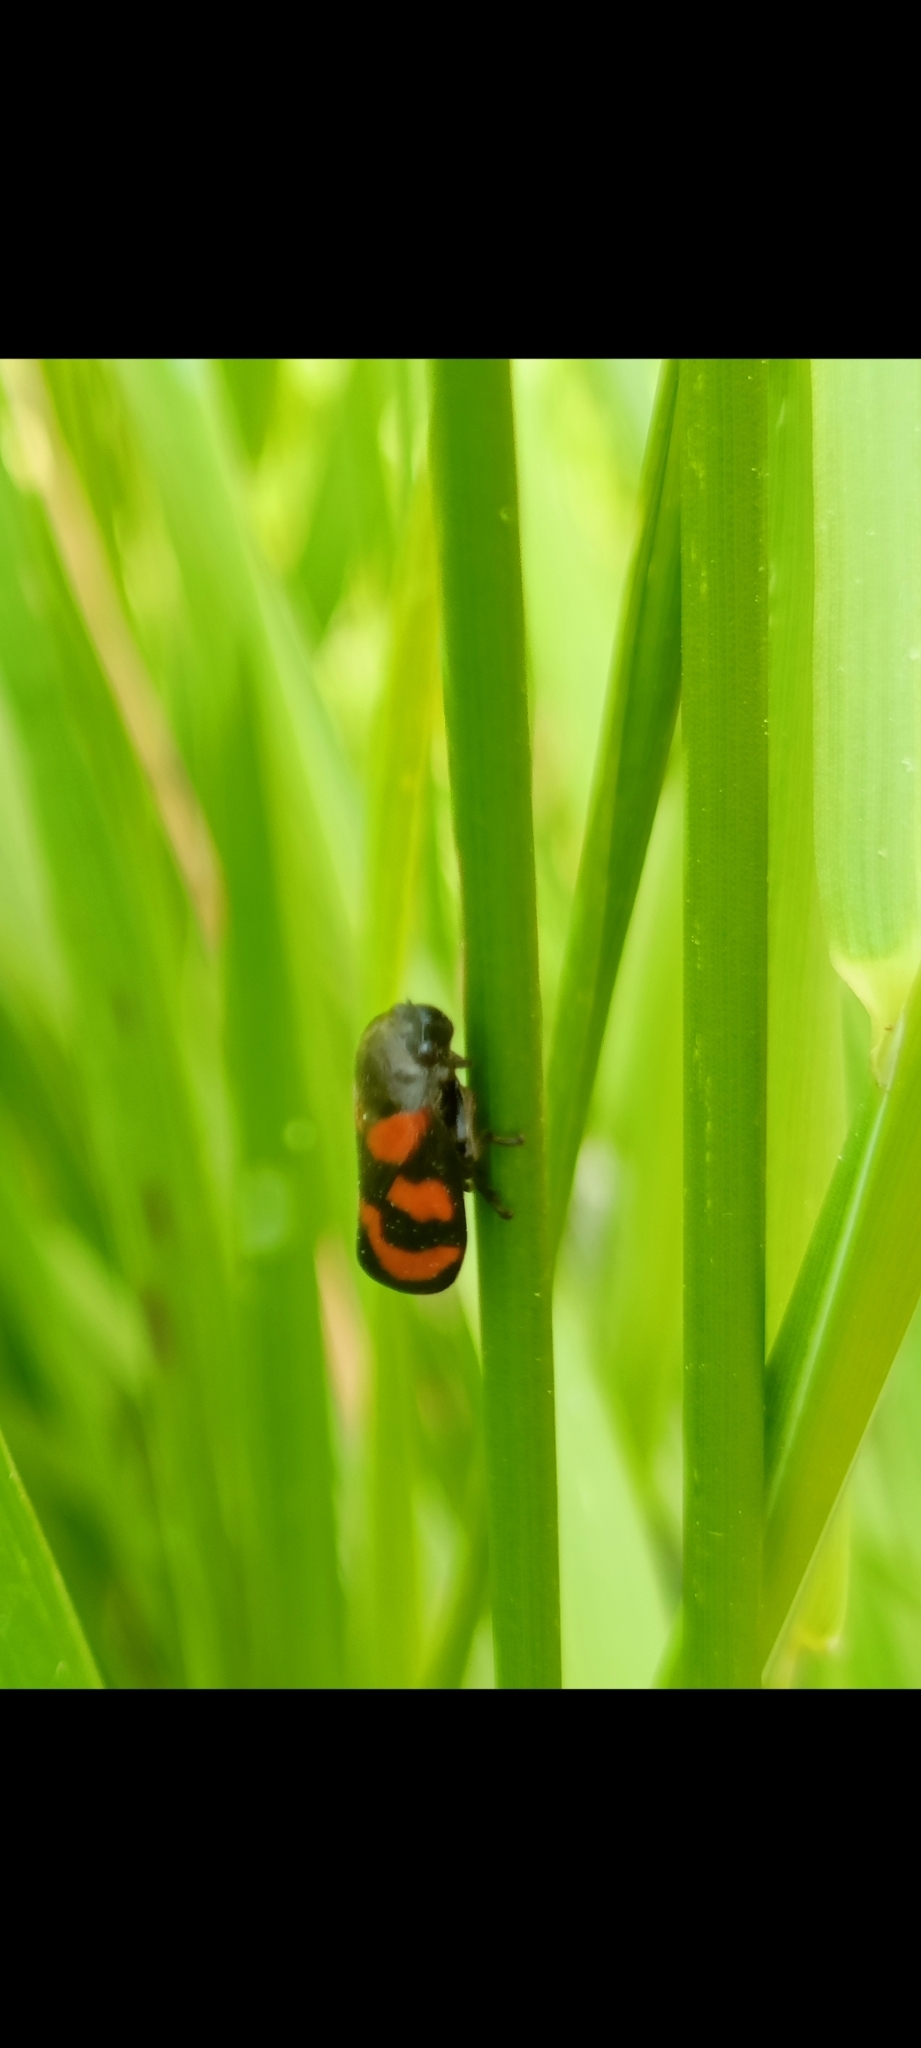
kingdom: Animalia
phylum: Arthropoda
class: Insecta
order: Hemiptera
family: Cercopidae
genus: Cercopis
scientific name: Cercopis vulnerata
